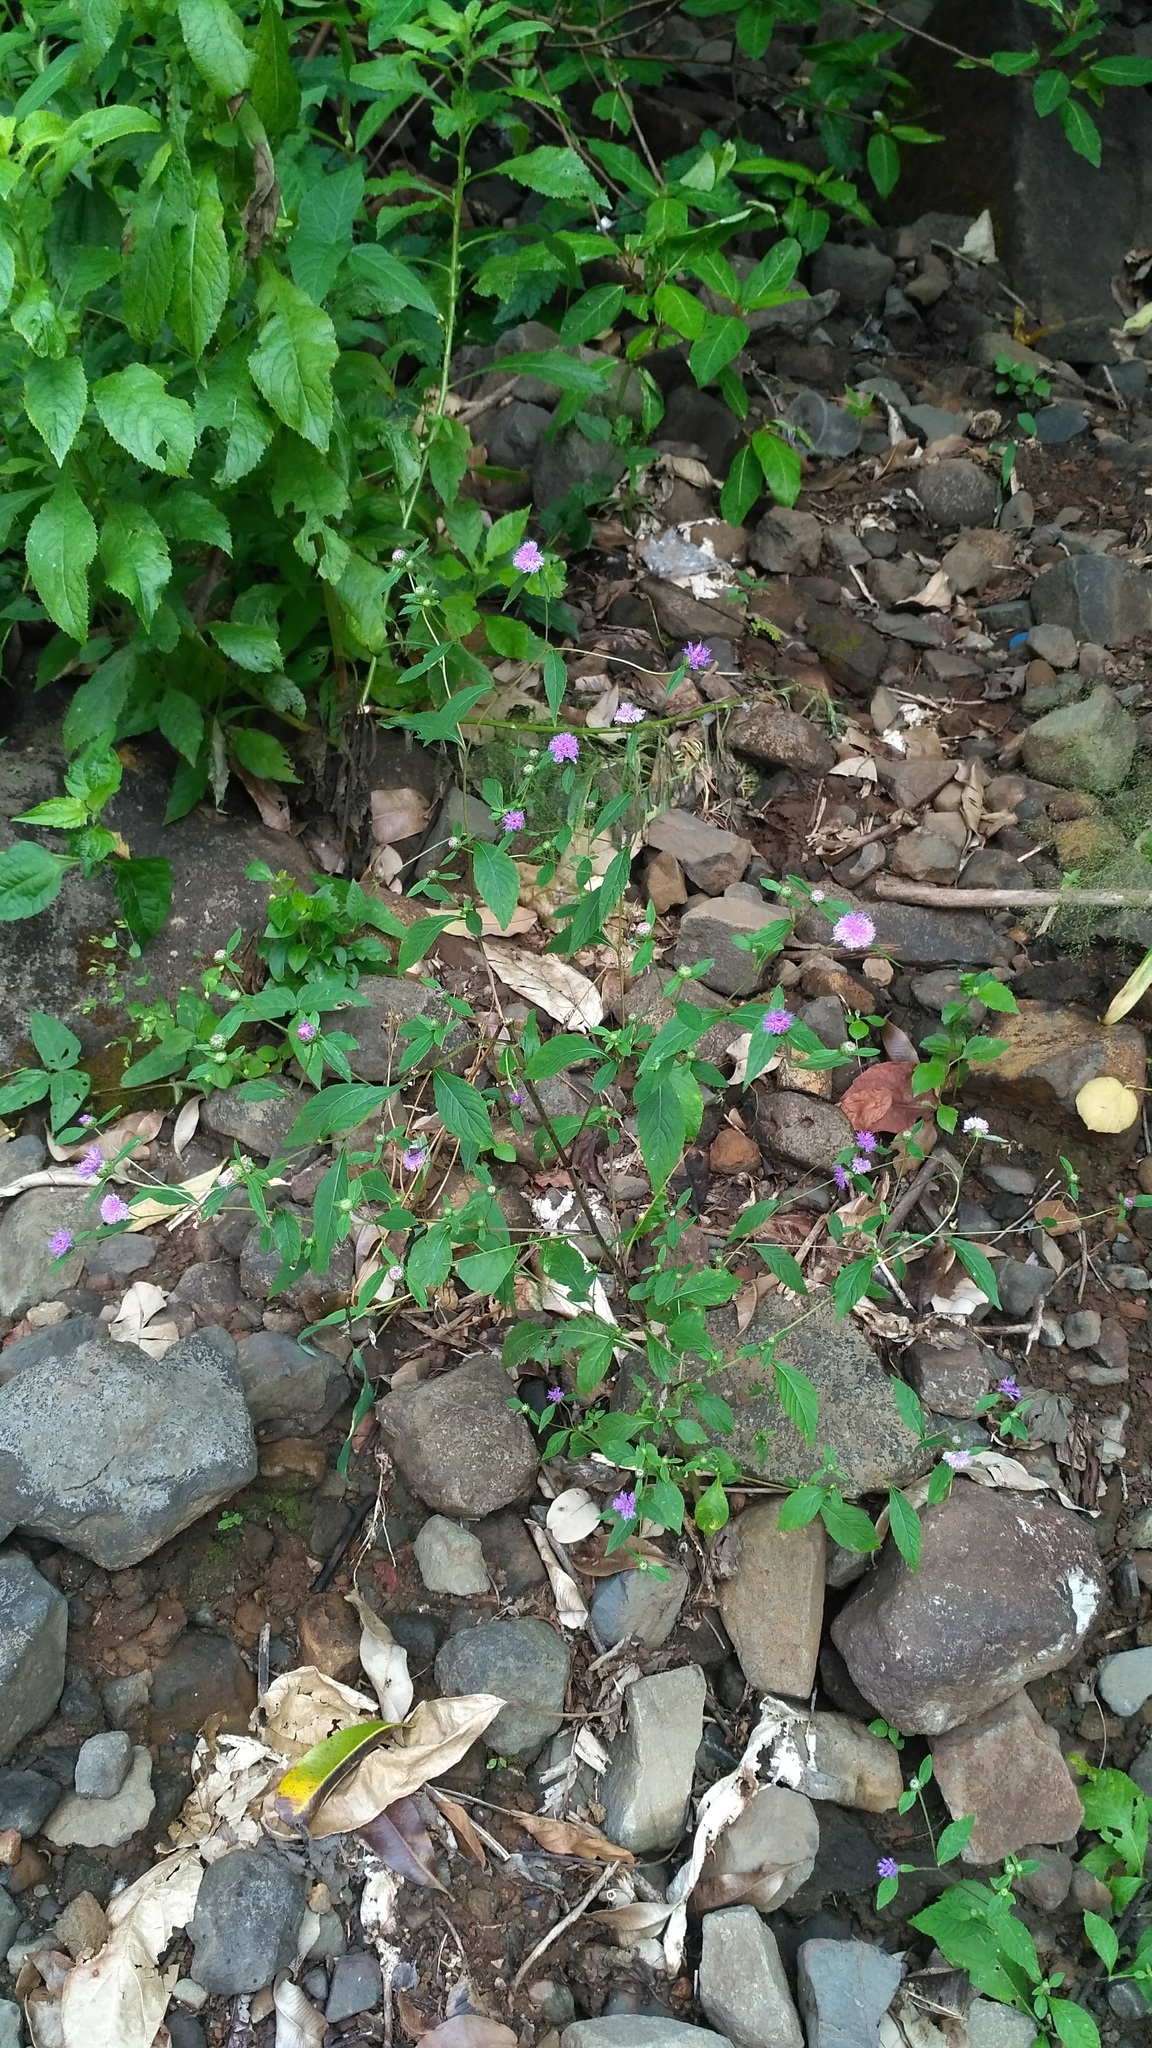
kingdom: Plantae
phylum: Tracheophyta
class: Magnoliopsida
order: Asterales
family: Asteraceae
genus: Phyllocephalum
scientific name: Phyllocephalum scabridum
